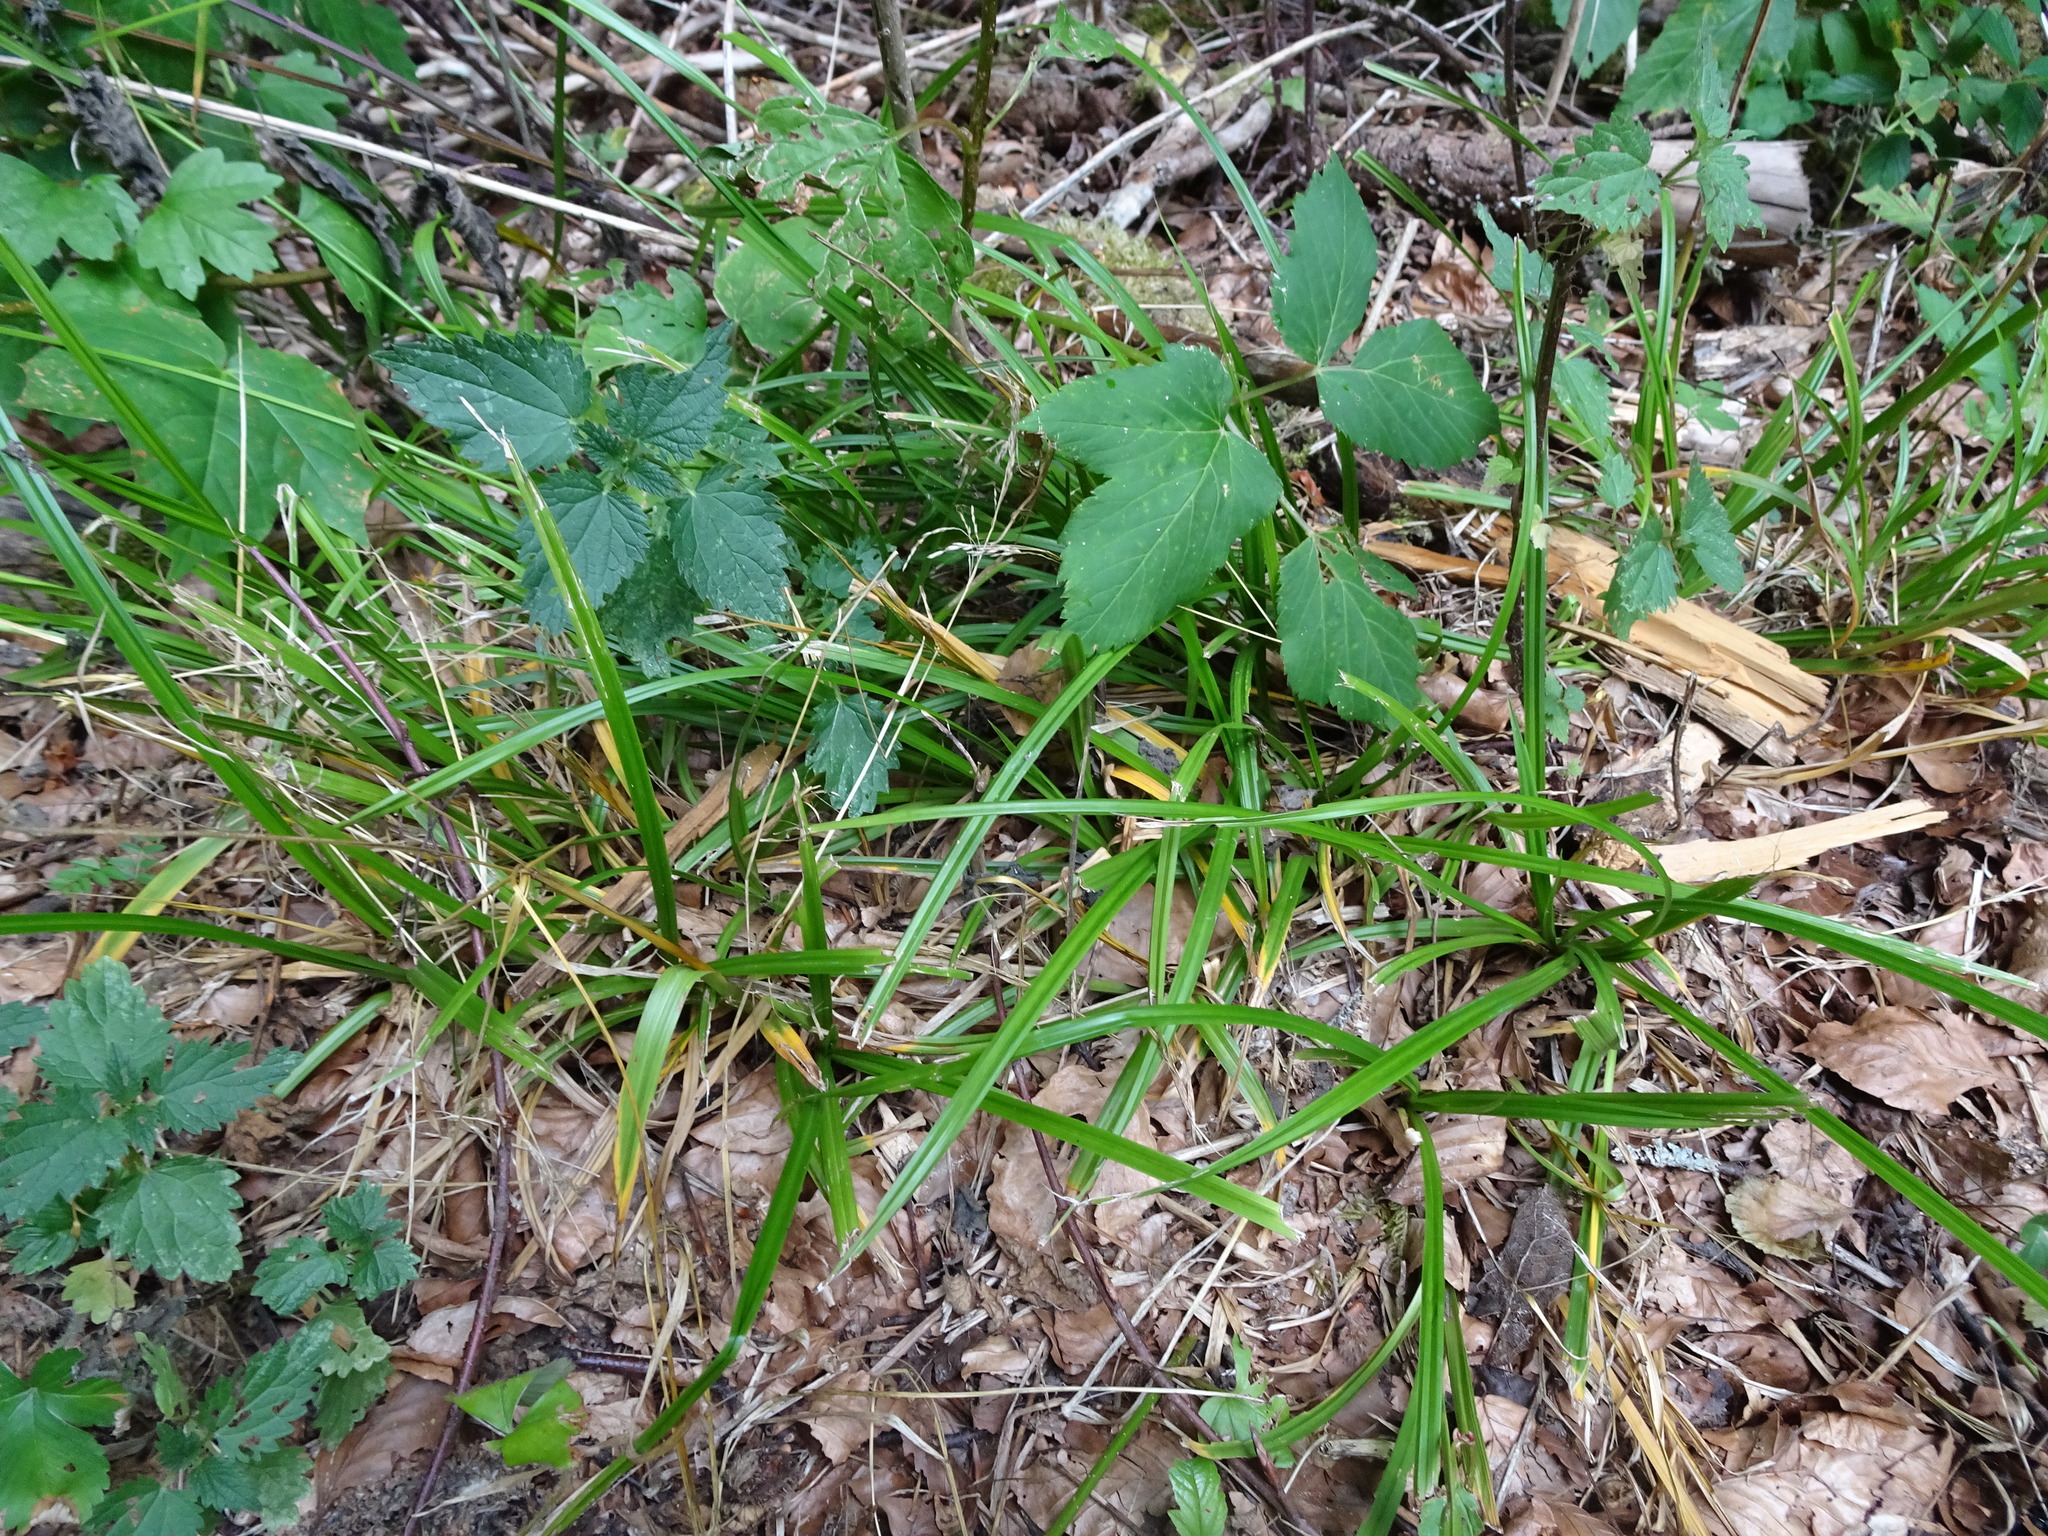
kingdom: Plantae
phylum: Tracheophyta
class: Liliopsida
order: Poales
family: Cyperaceae
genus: Carex
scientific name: Carex sylvatica
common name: Wood-sedge
